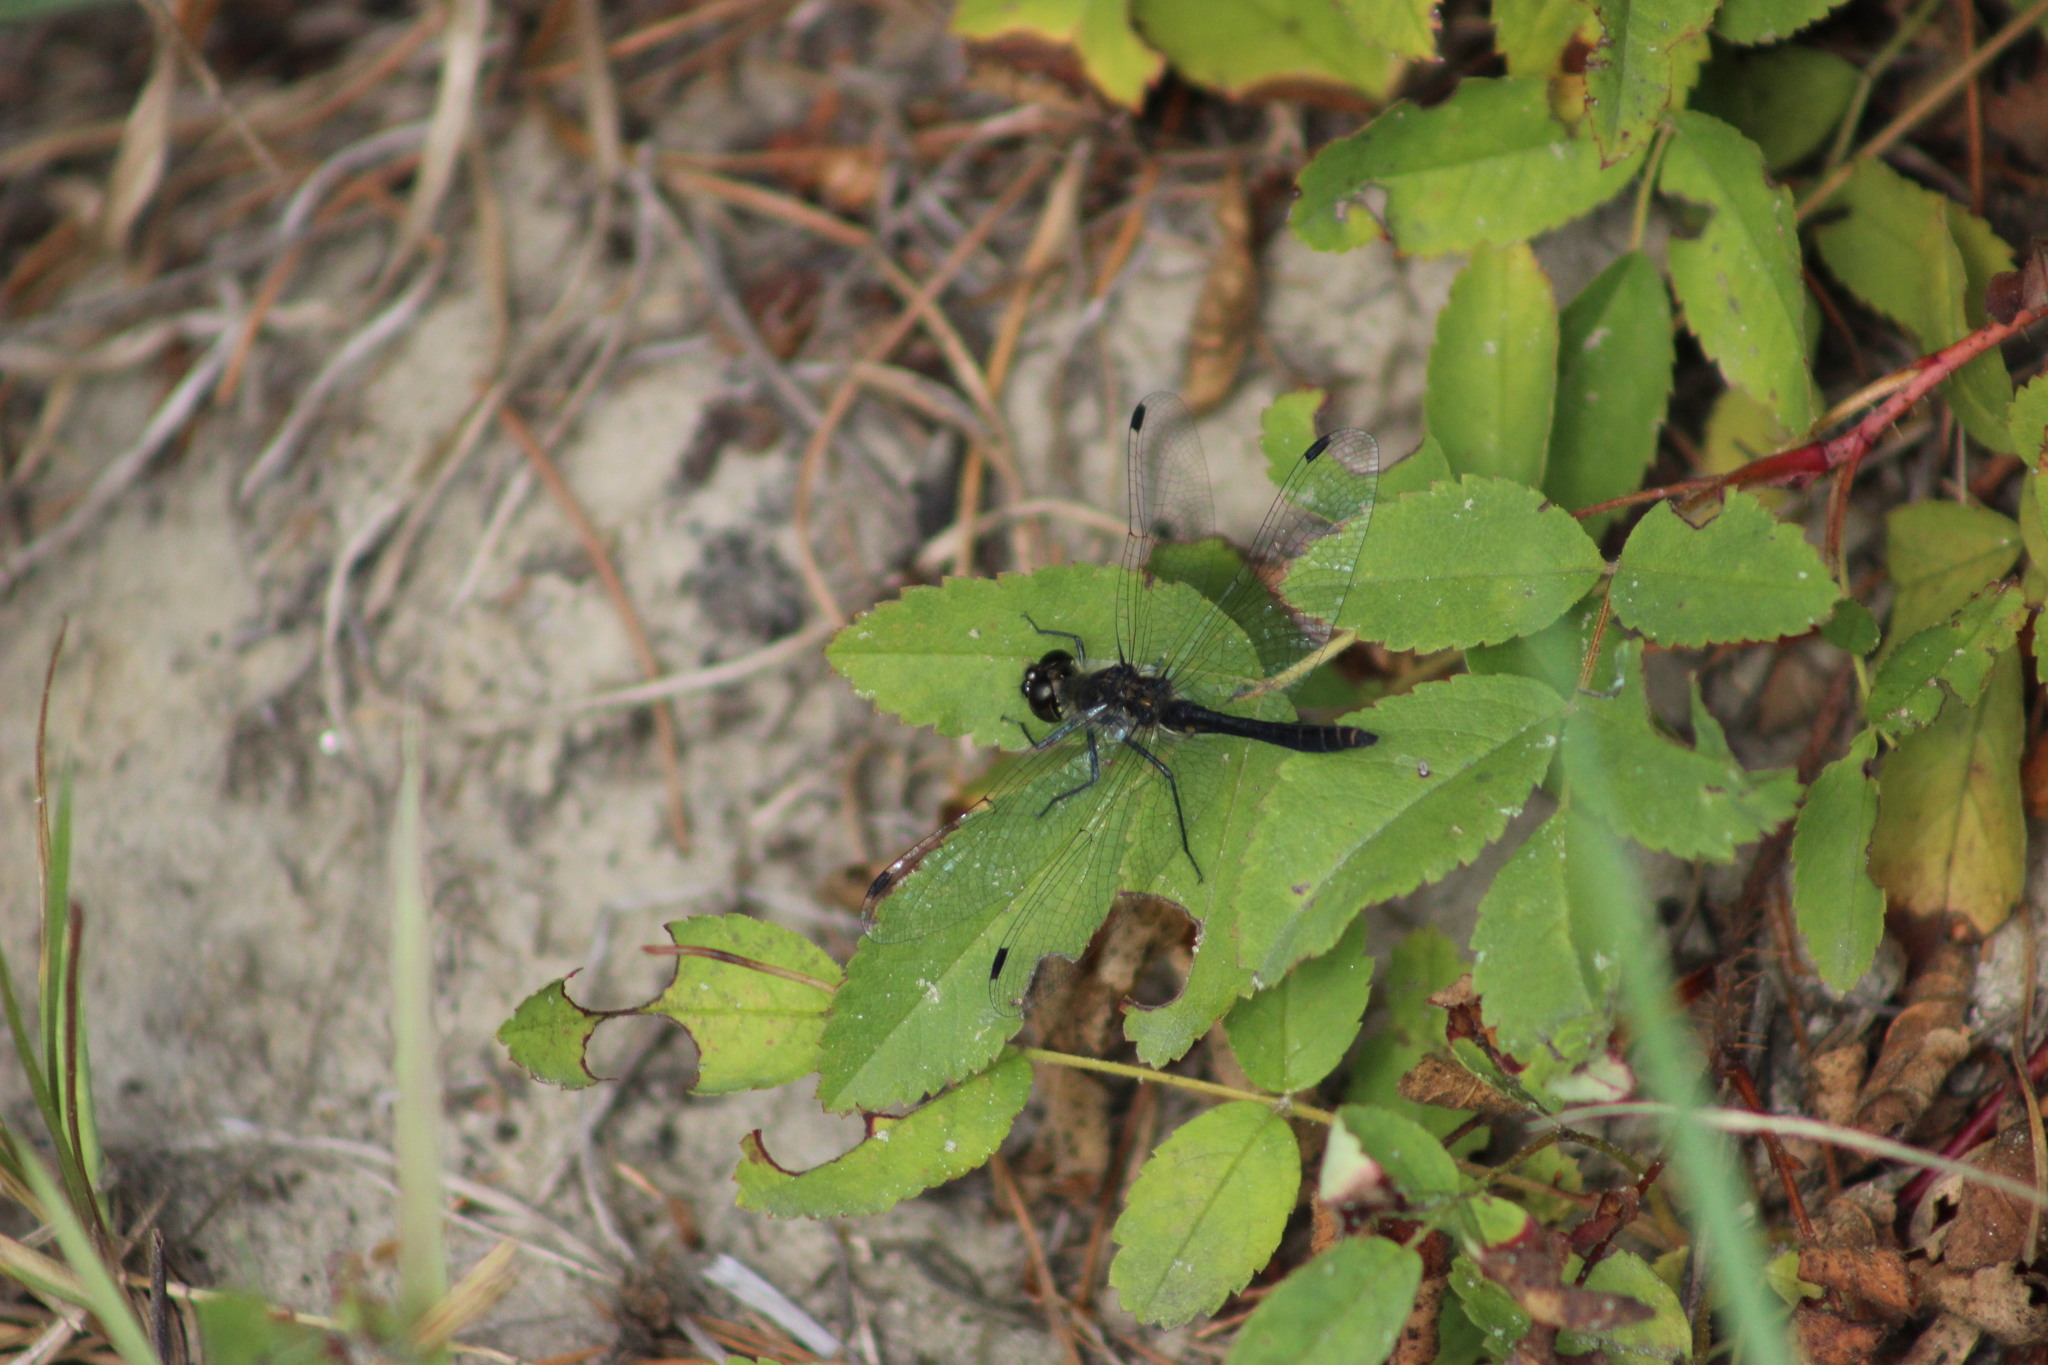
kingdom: Animalia
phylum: Arthropoda
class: Insecta
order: Odonata
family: Libellulidae
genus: Sympetrum
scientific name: Sympetrum danae
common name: Black darter
